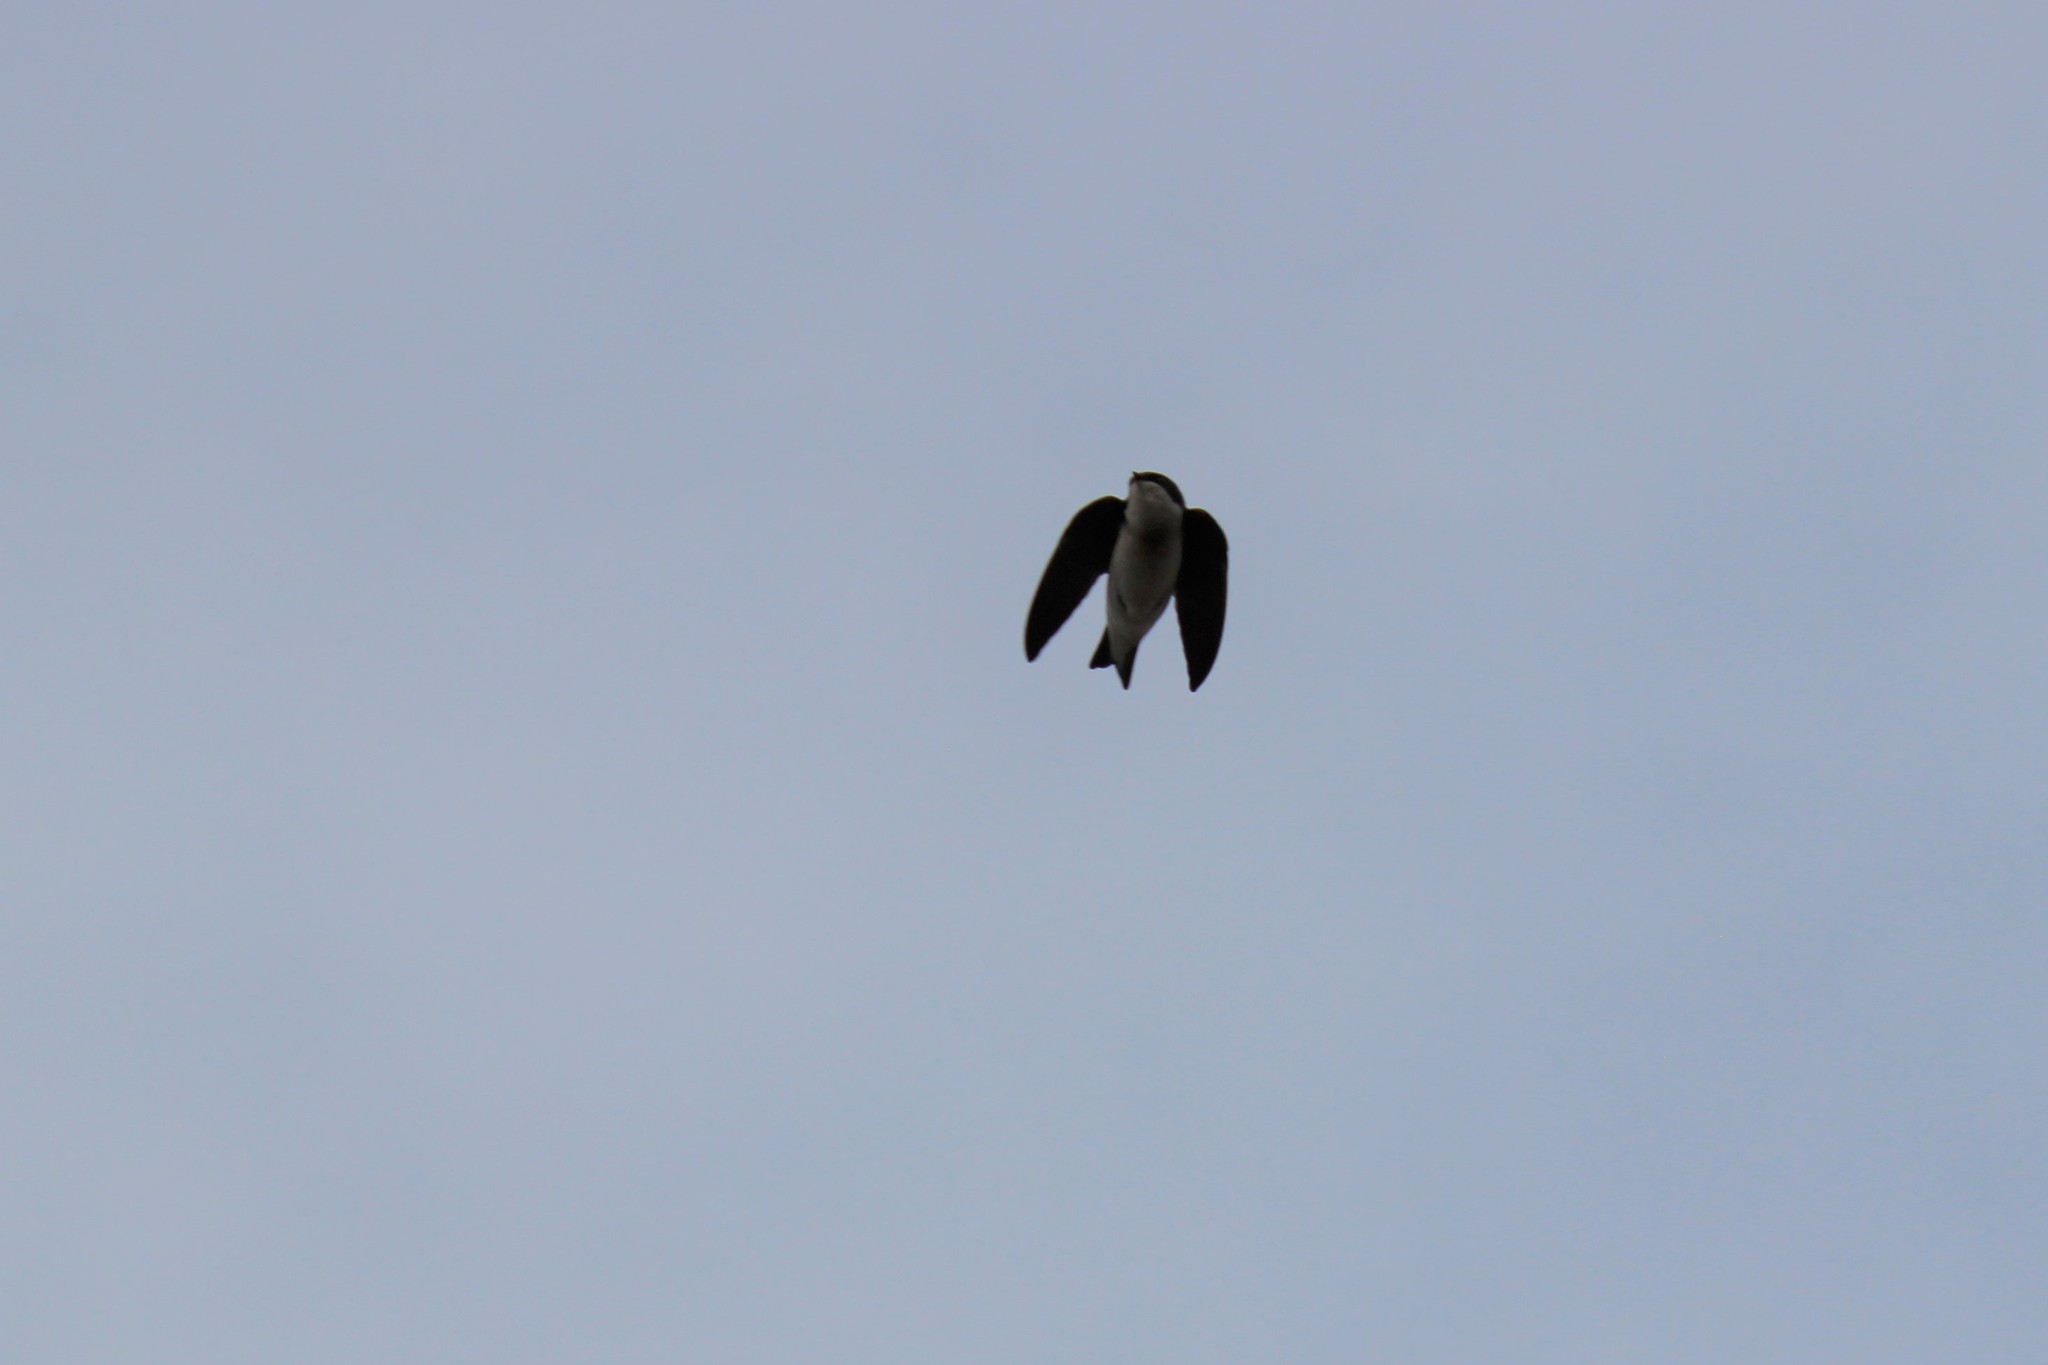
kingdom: Animalia
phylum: Chordata
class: Aves
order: Passeriformes
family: Hirundinidae
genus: Tachycineta
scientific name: Tachycineta bicolor
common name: Tree swallow
